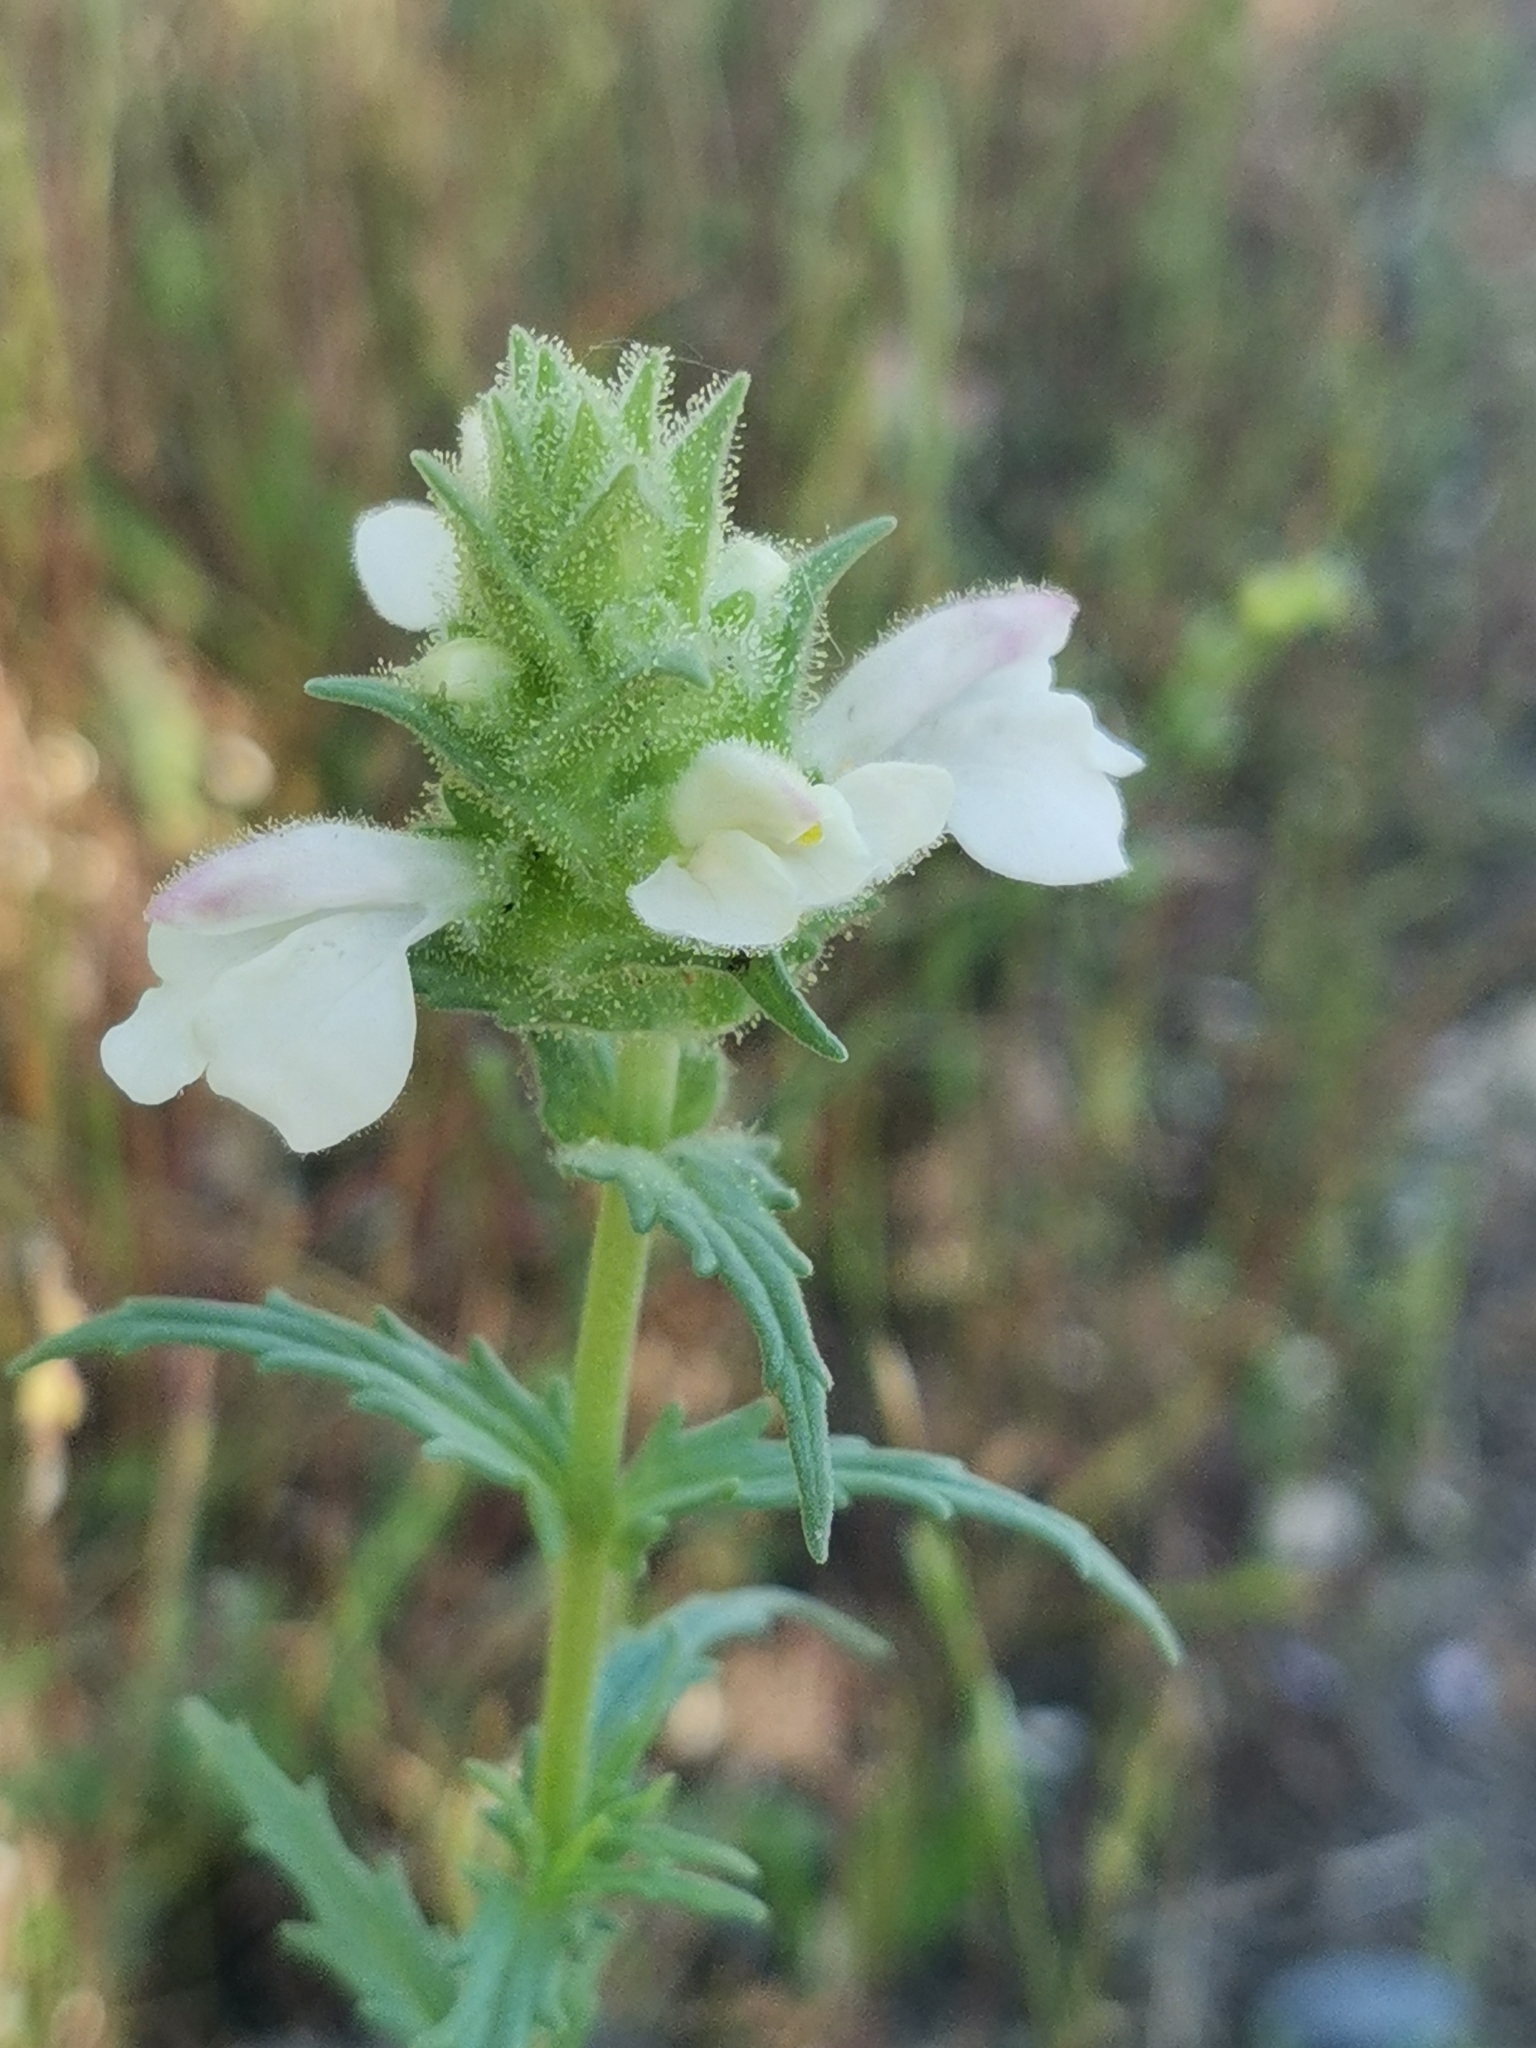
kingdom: Plantae
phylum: Tracheophyta
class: Magnoliopsida
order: Lamiales
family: Orobanchaceae
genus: Bellardia
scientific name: Bellardia trixago
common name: Mediterranean lineseed
